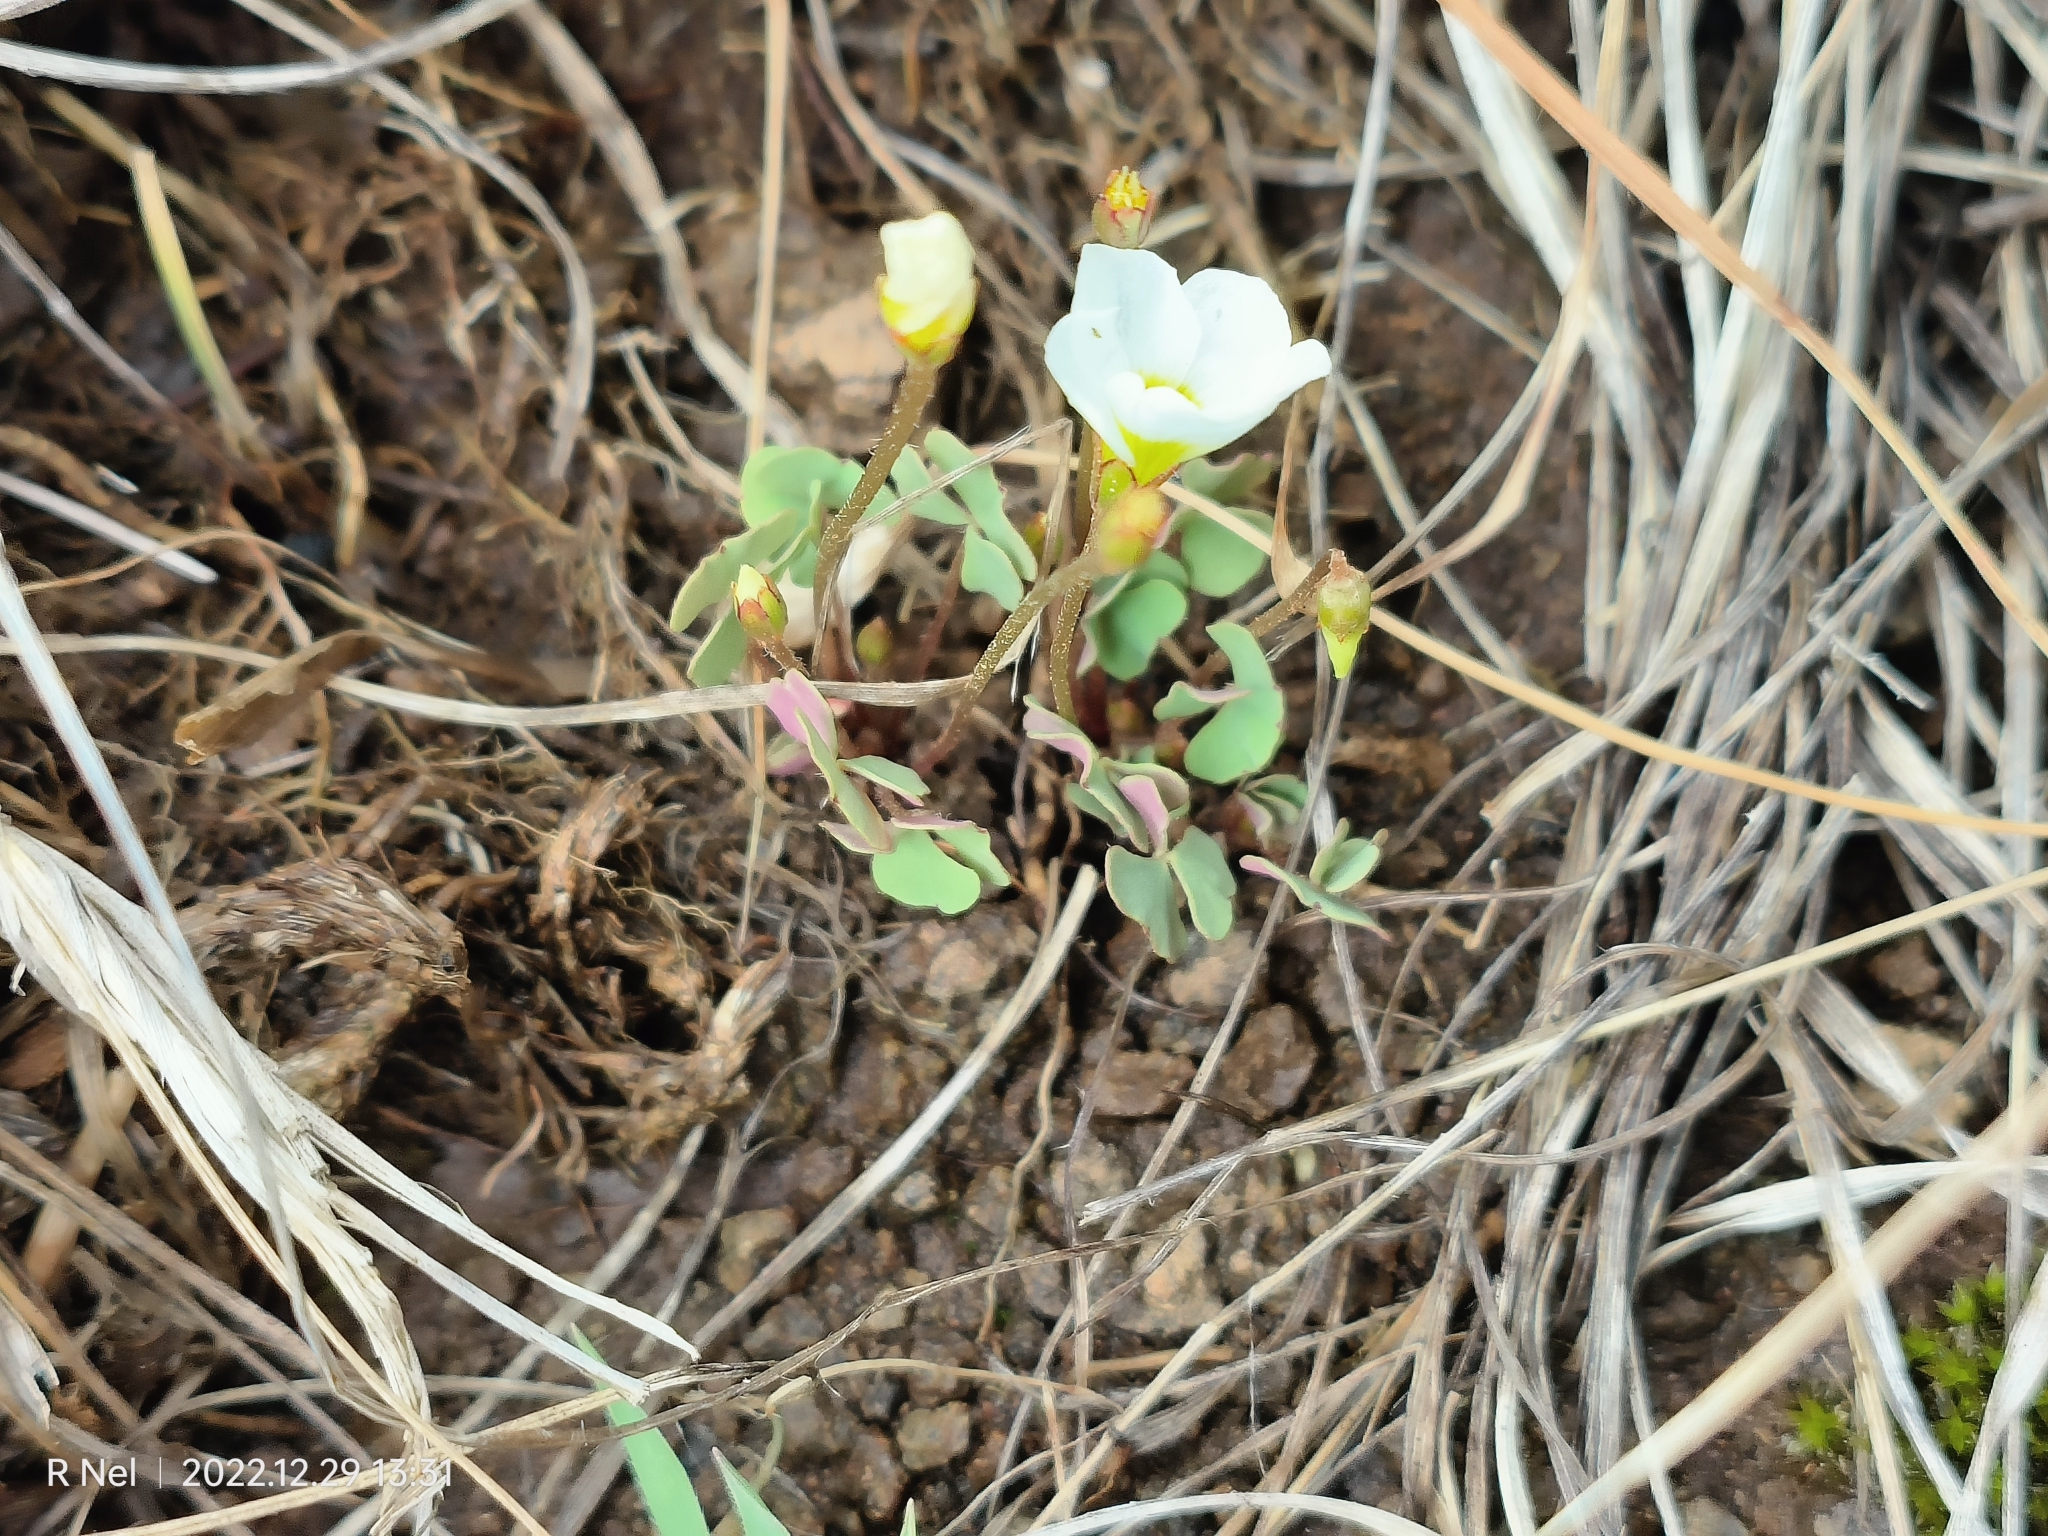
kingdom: Plantae
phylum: Tracheophyta
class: Magnoliopsida
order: Oxalidales
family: Oxalidaceae
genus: Oxalis
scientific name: Oxalis obliquifolia
